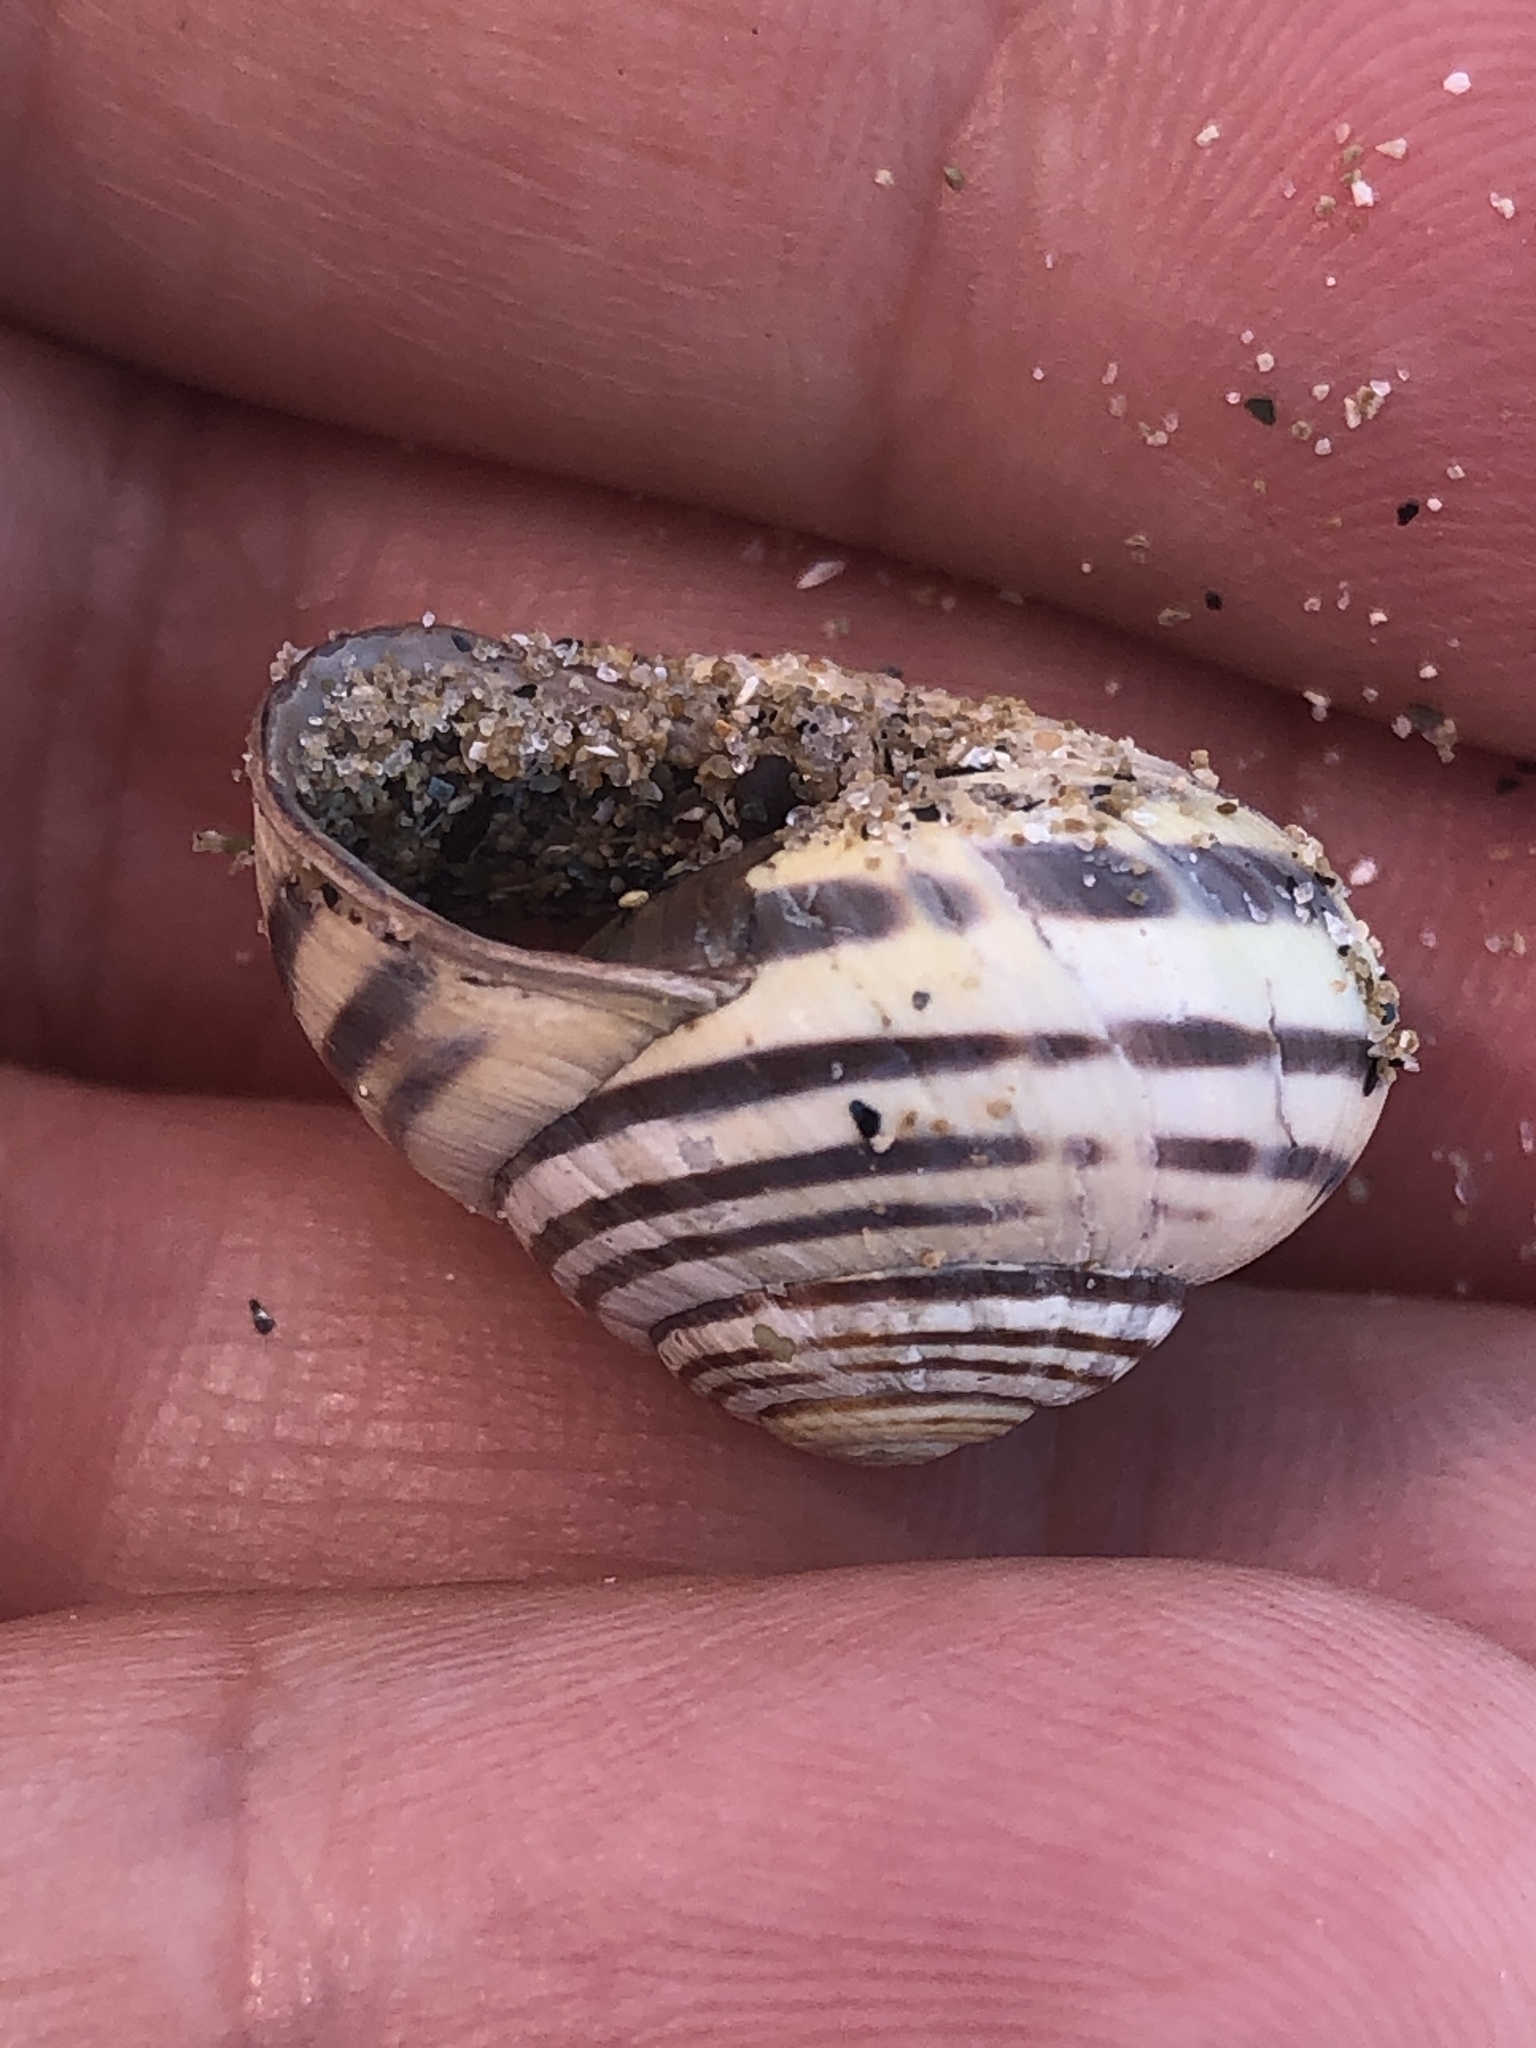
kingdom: Animalia
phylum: Mollusca
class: Gastropoda
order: Stylommatophora
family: Helicidae
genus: Cepaea
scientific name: Cepaea nemoralis
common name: Grovesnail
